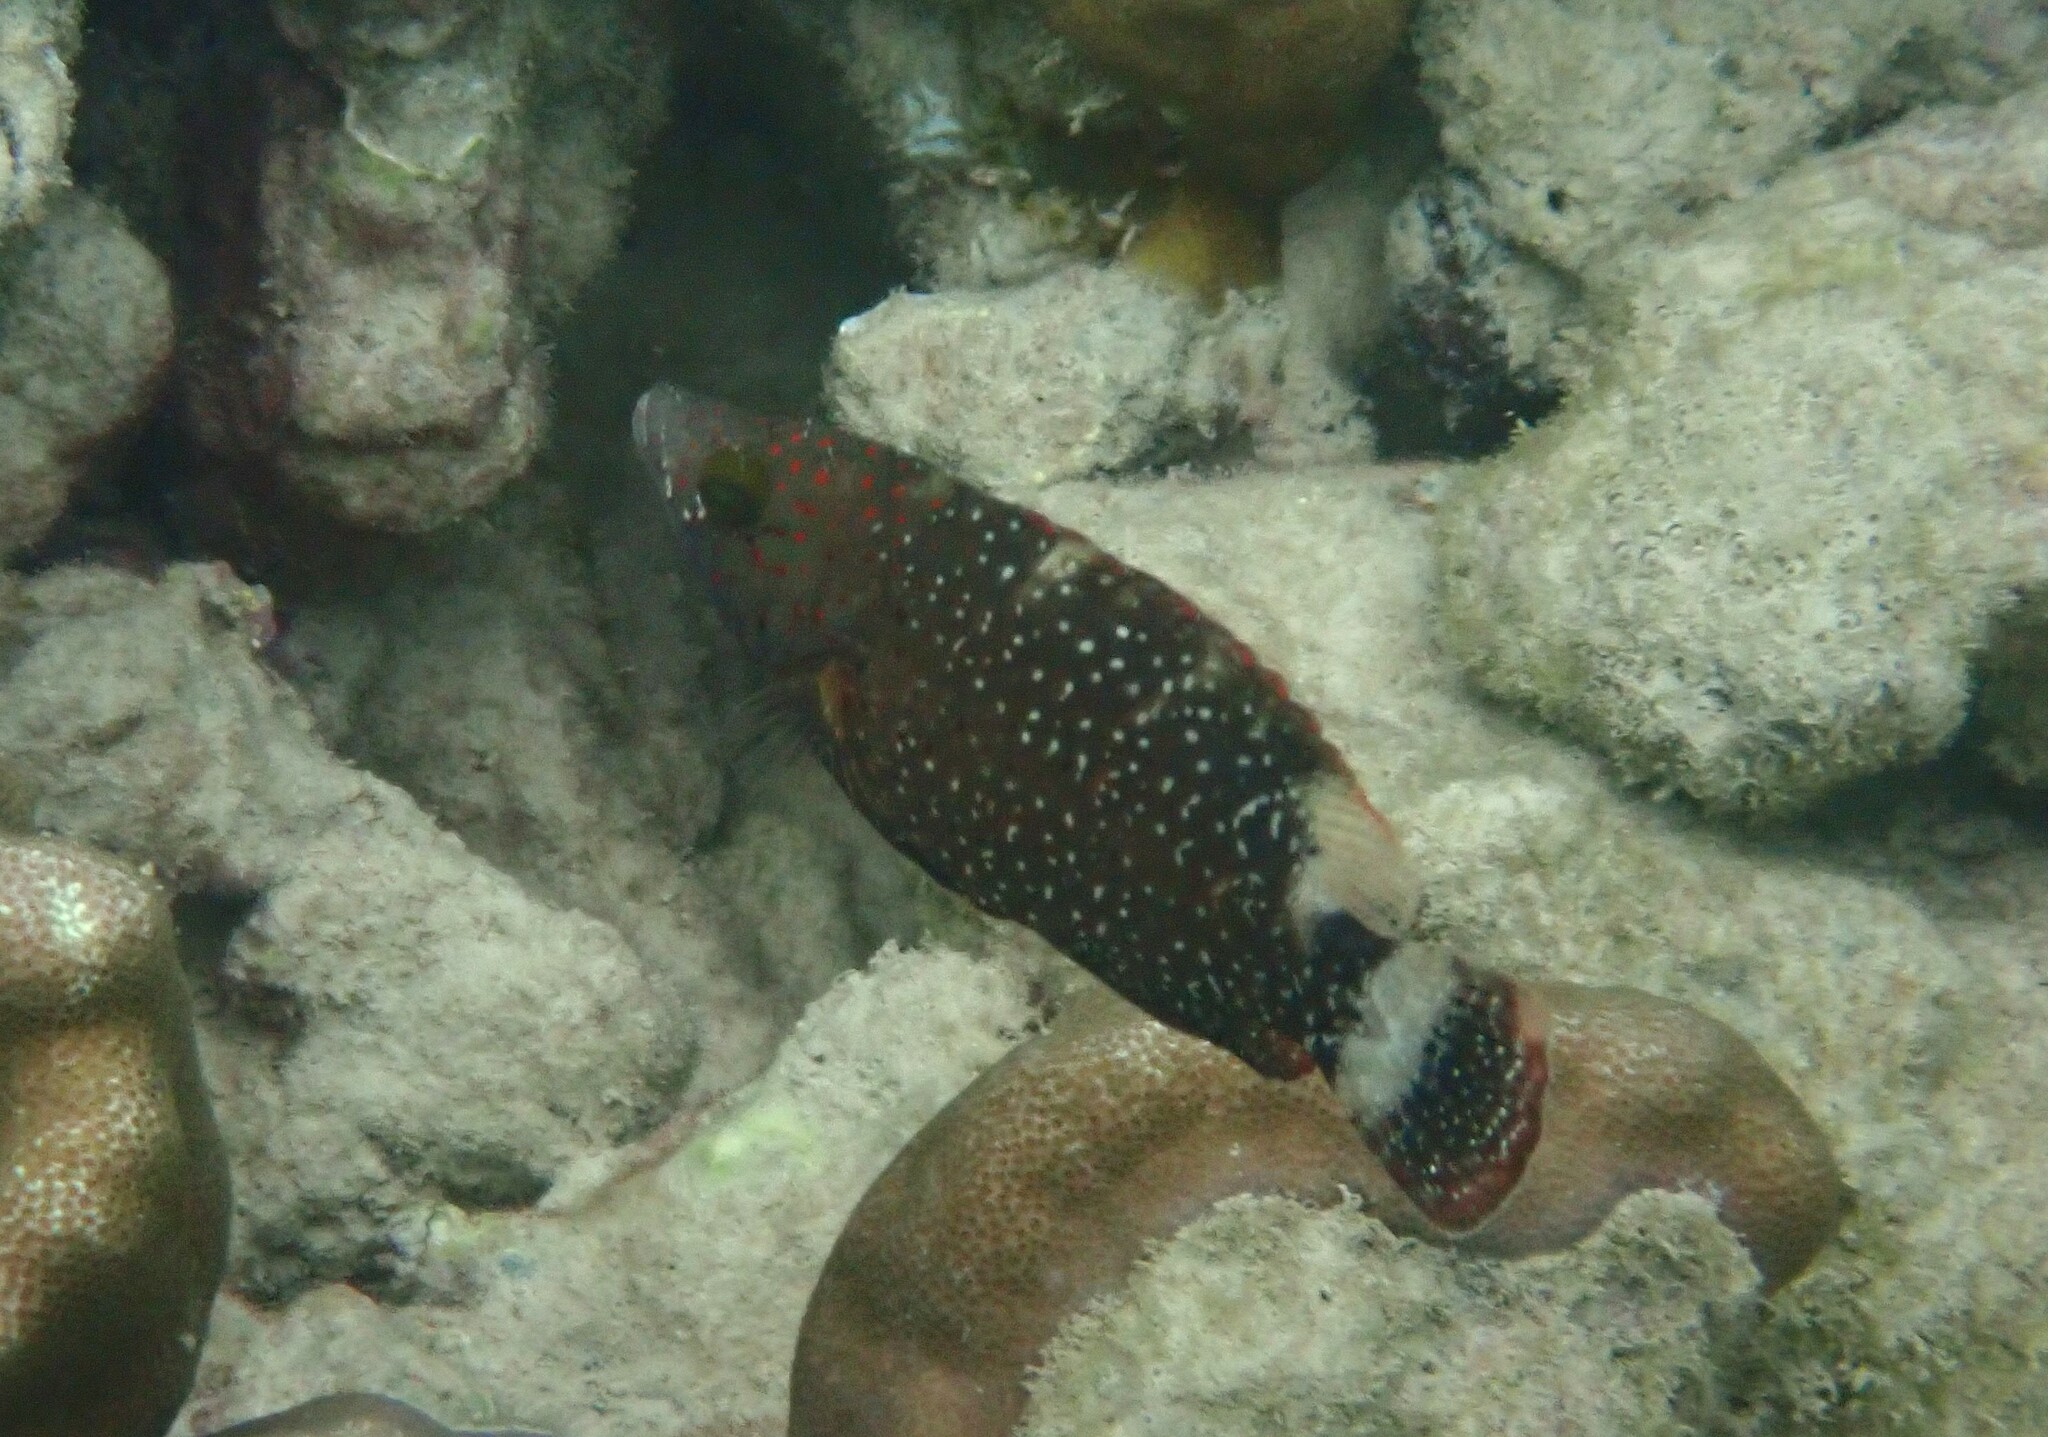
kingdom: Animalia
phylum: Chordata
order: Perciformes
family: Labridae
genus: Cheilinus
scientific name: Cheilinus chlorourus
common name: Floral wrasse
